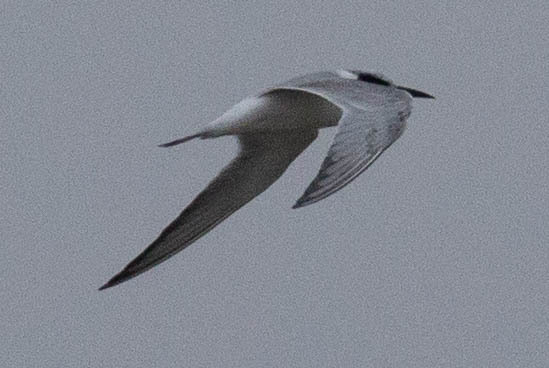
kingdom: Animalia
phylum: Chordata
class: Aves
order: Charadriiformes
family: Laridae
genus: Sterna
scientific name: Sterna forsteri
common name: Forster's tern
